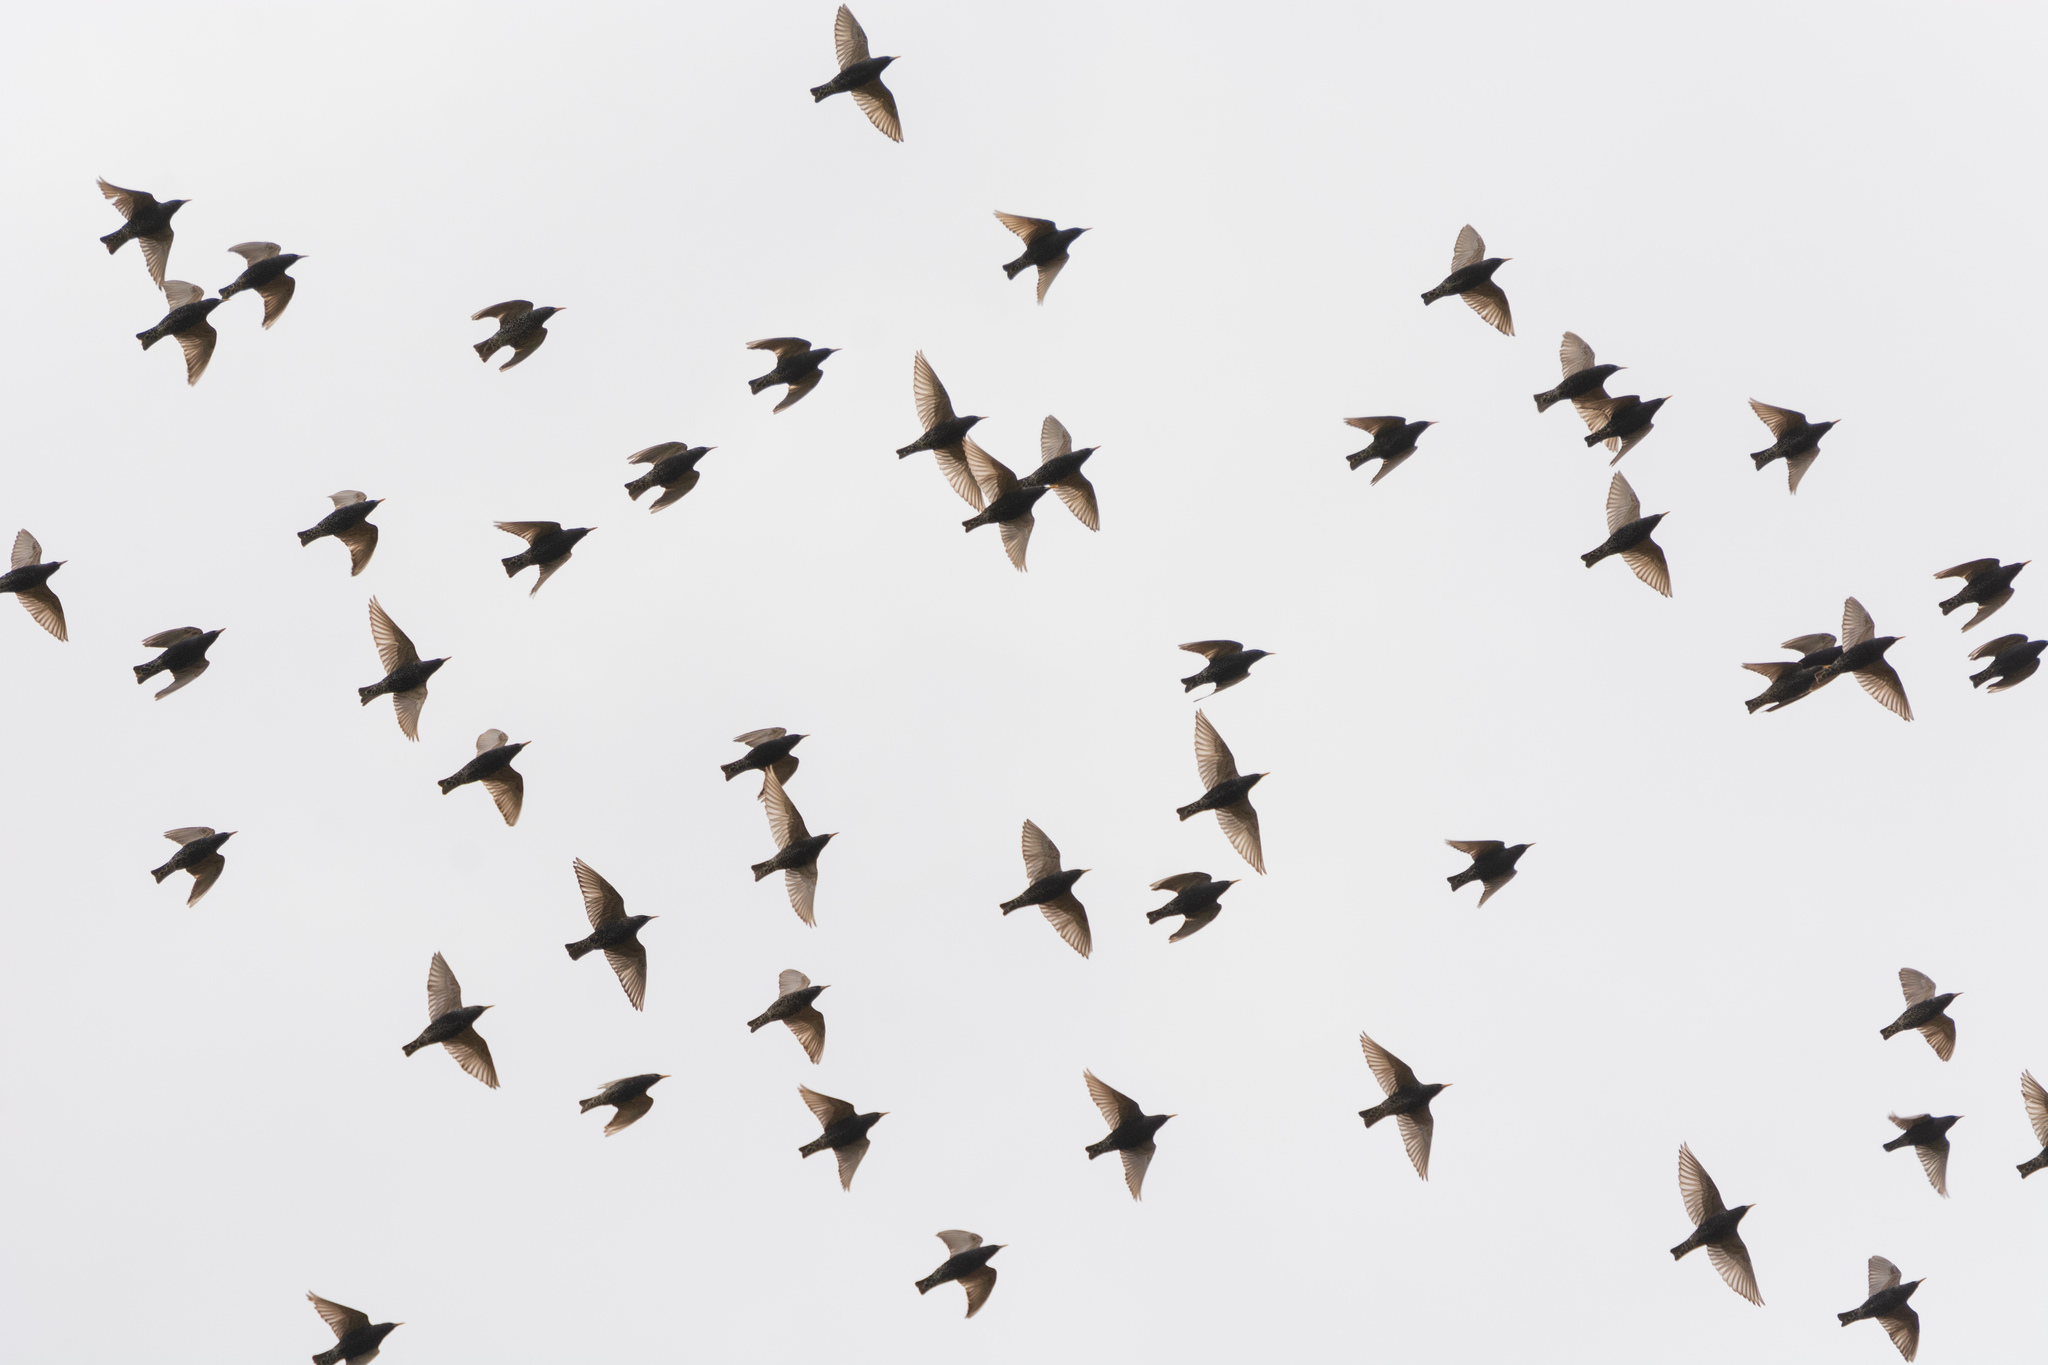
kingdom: Animalia
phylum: Chordata
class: Aves
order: Passeriformes
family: Sturnidae
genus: Sturnus
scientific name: Sturnus vulgaris
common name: Common starling
